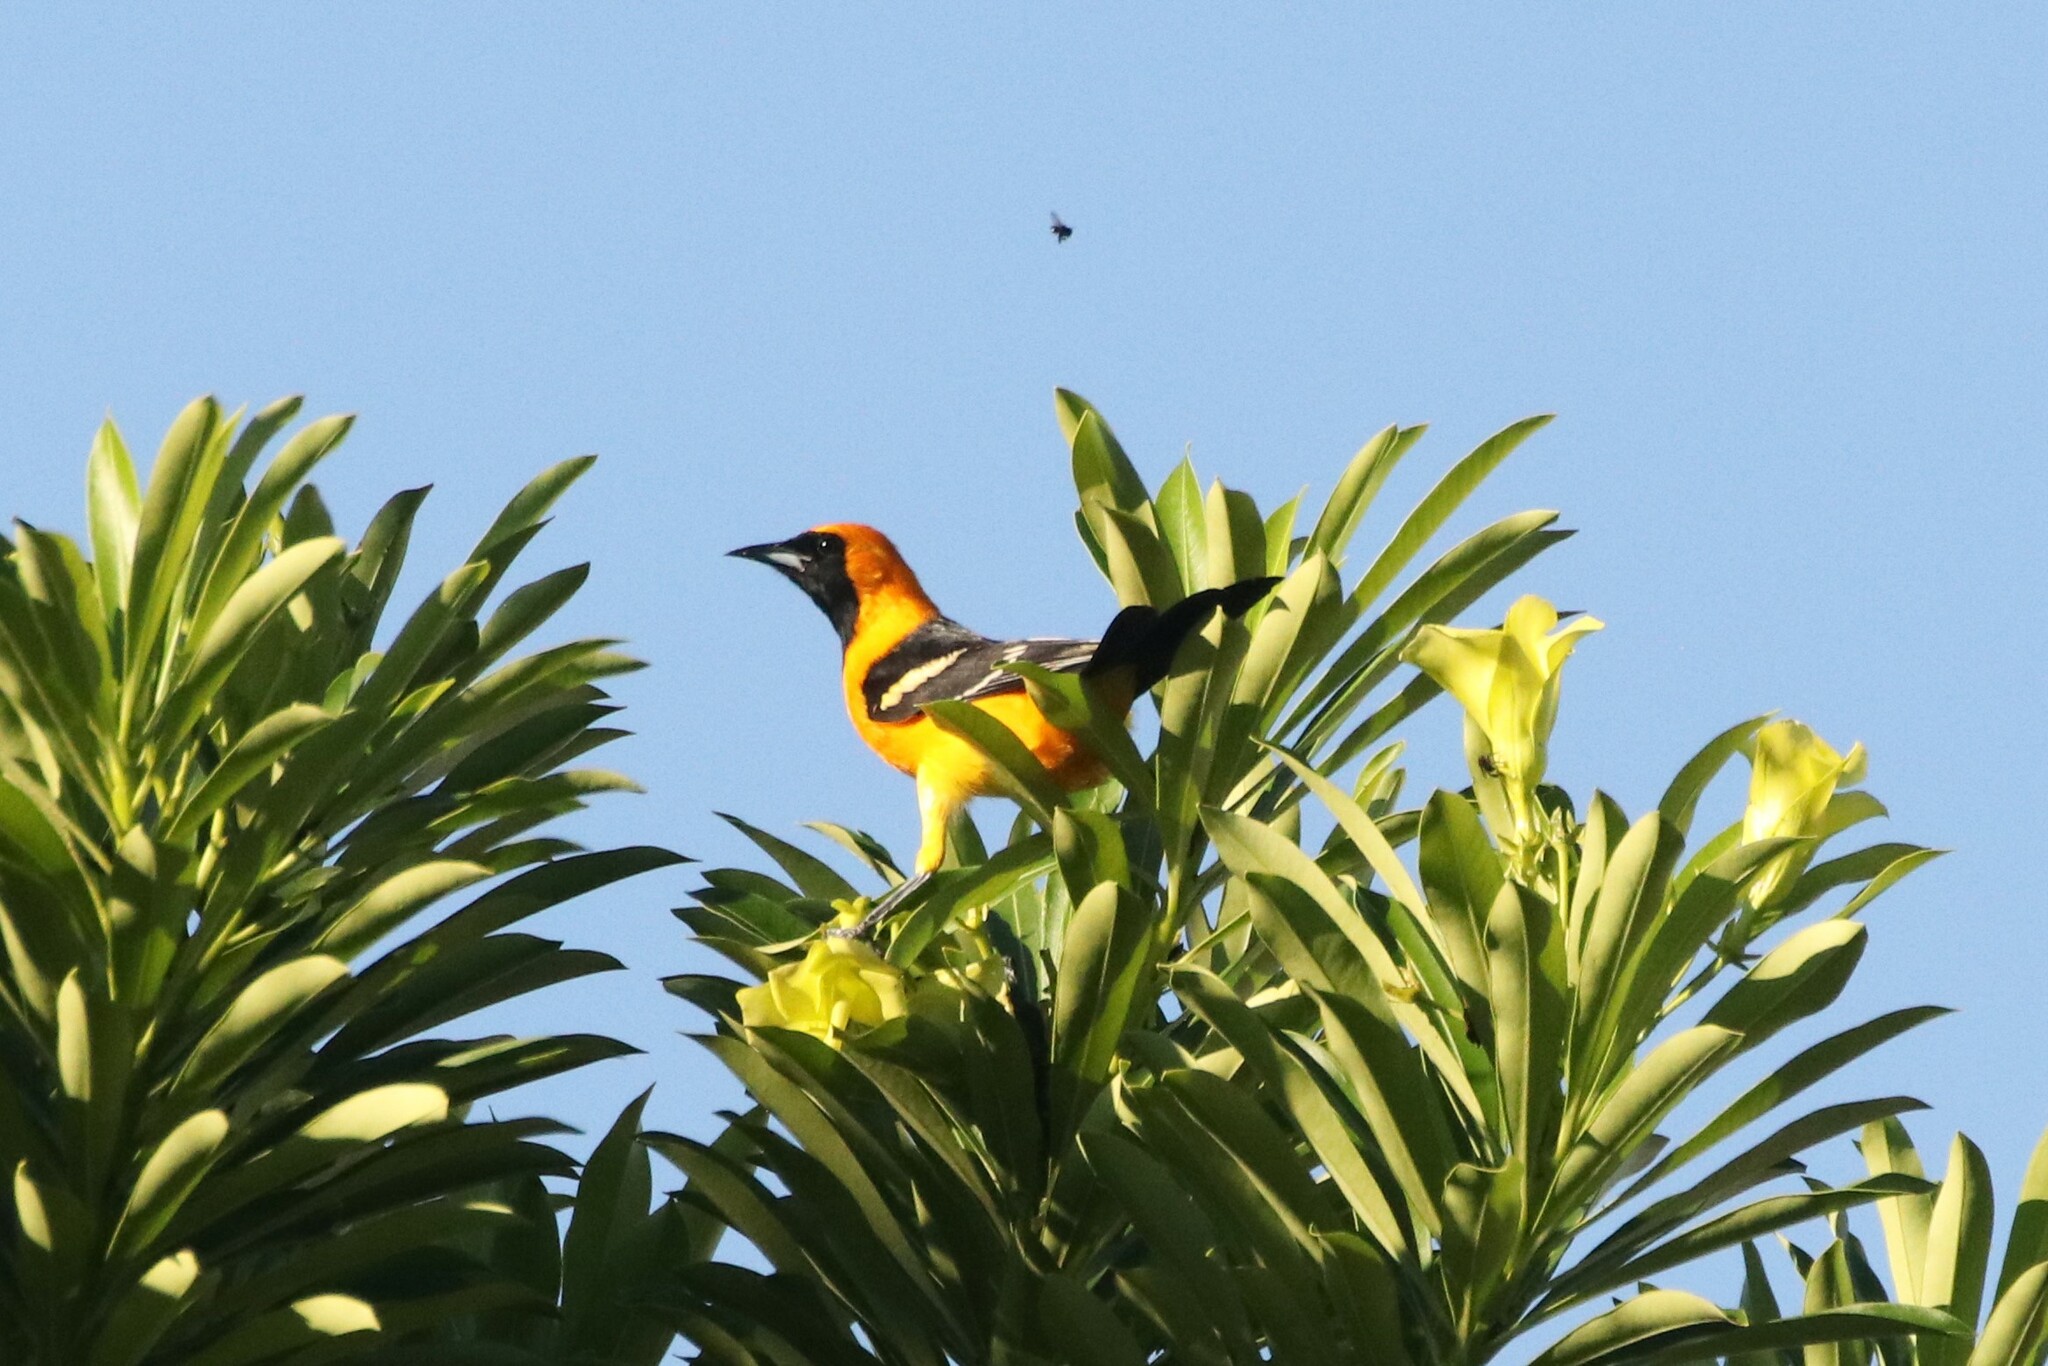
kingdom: Animalia
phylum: Chordata
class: Aves
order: Passeriformes
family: Icteridae
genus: Icterus
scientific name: Icterus cucullatus
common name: Hooded oriole
